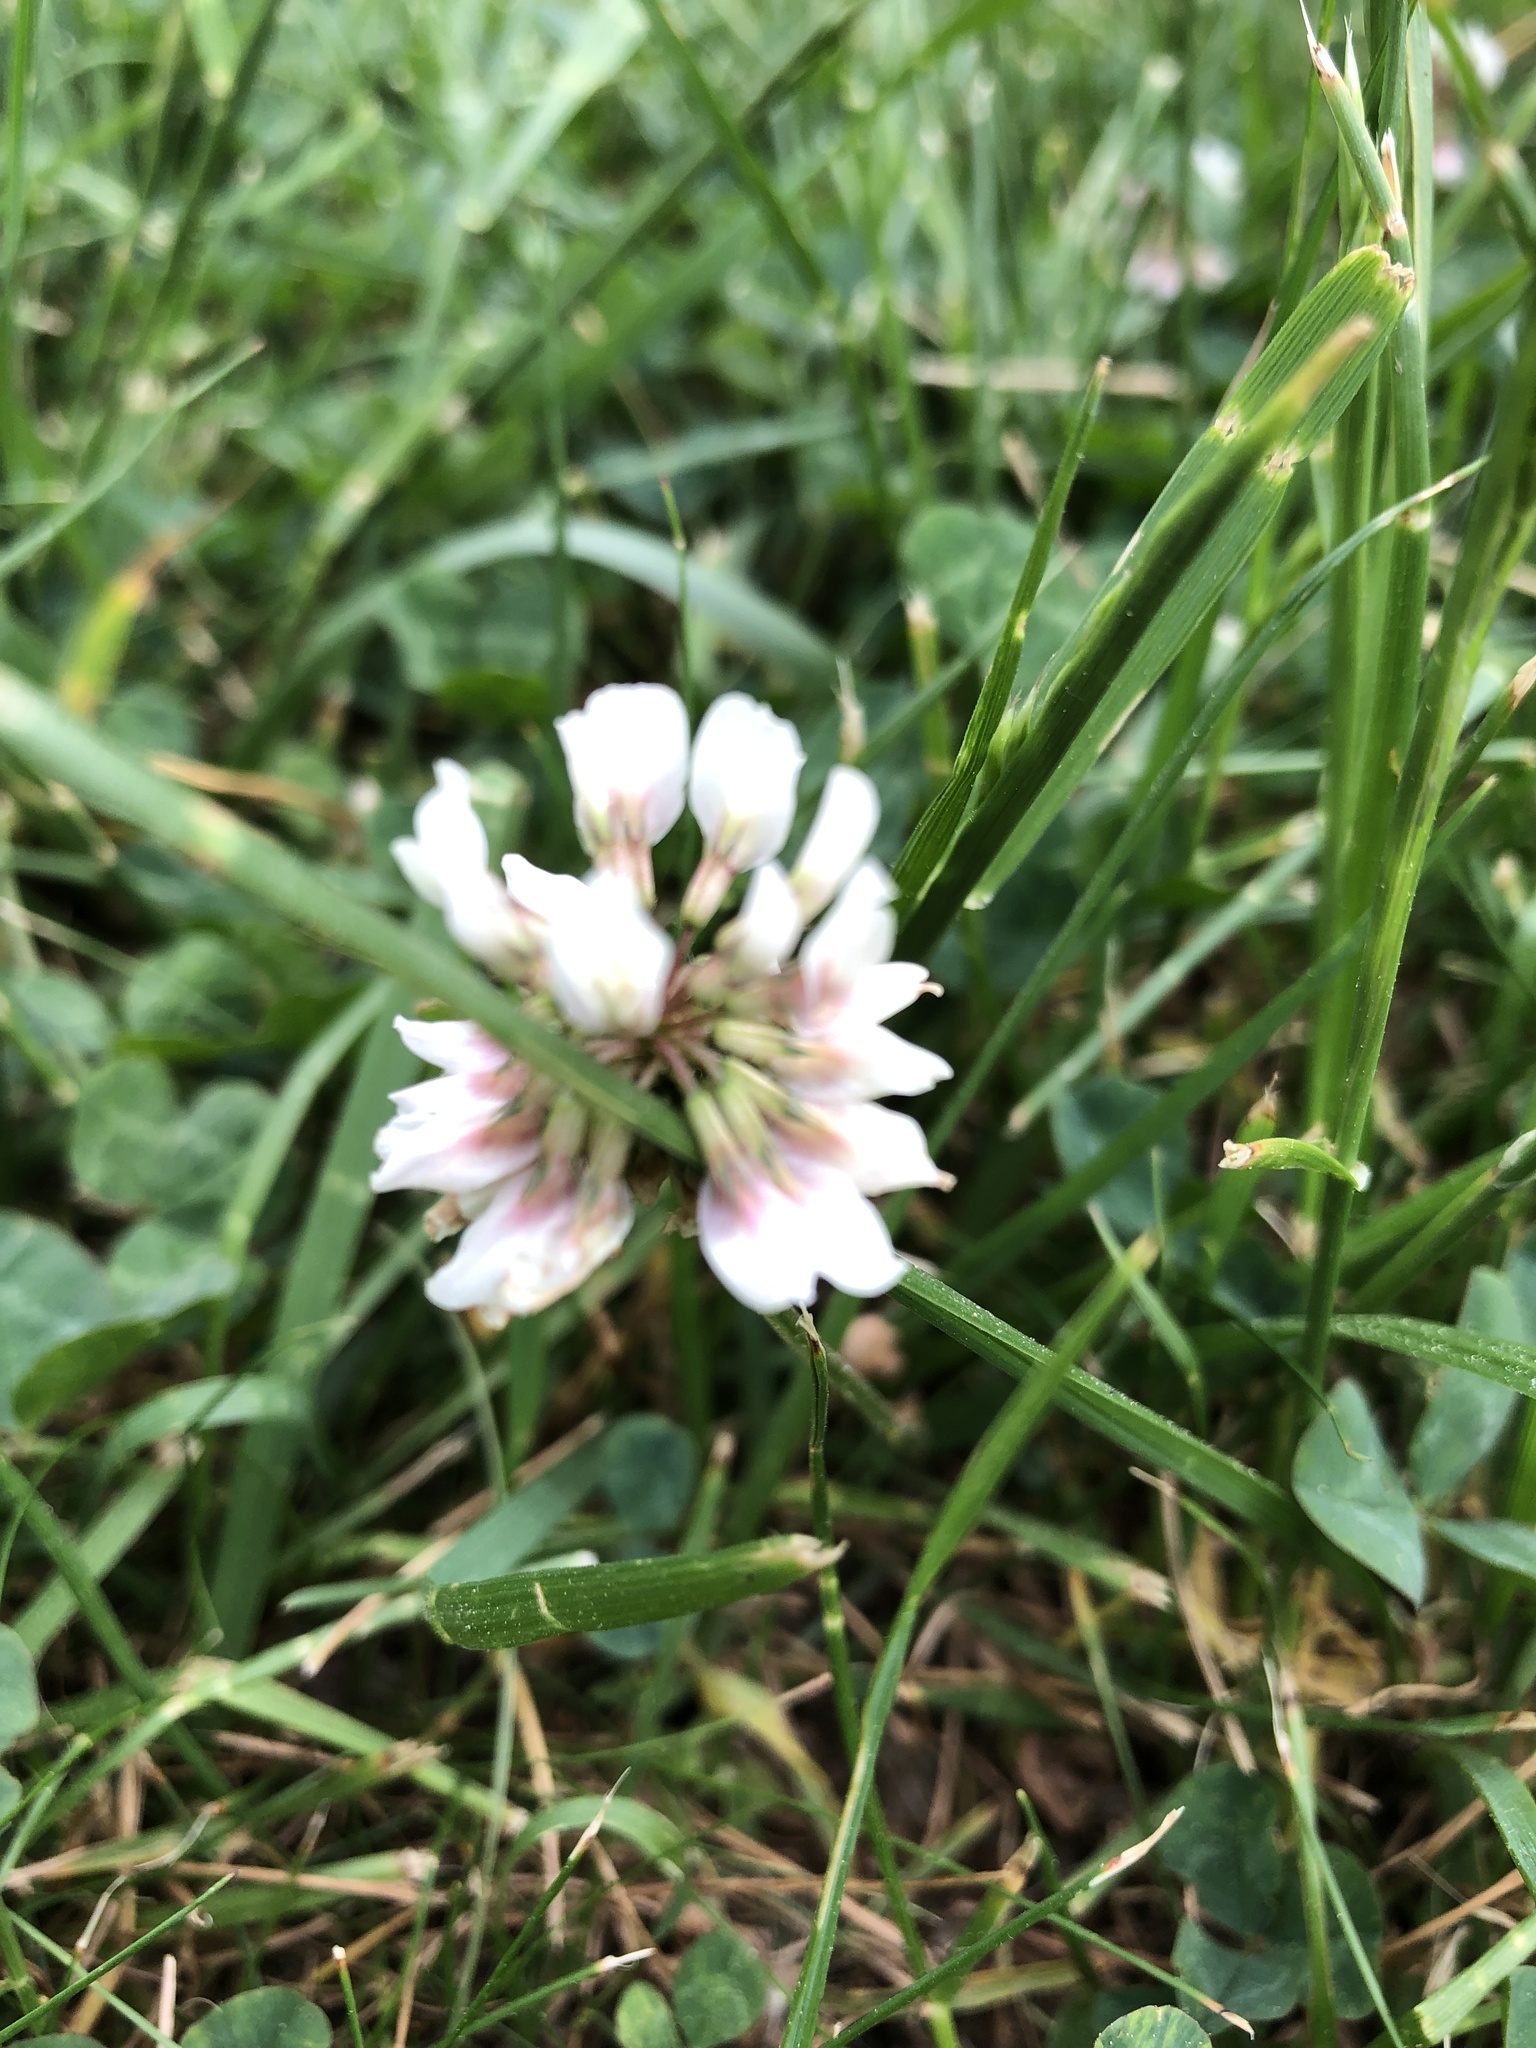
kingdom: Plantae
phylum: Tracheophyta
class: Magnoliopsida
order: Fabales
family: Fabaceae
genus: Trifolium
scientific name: Trifolium repens
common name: White clover
